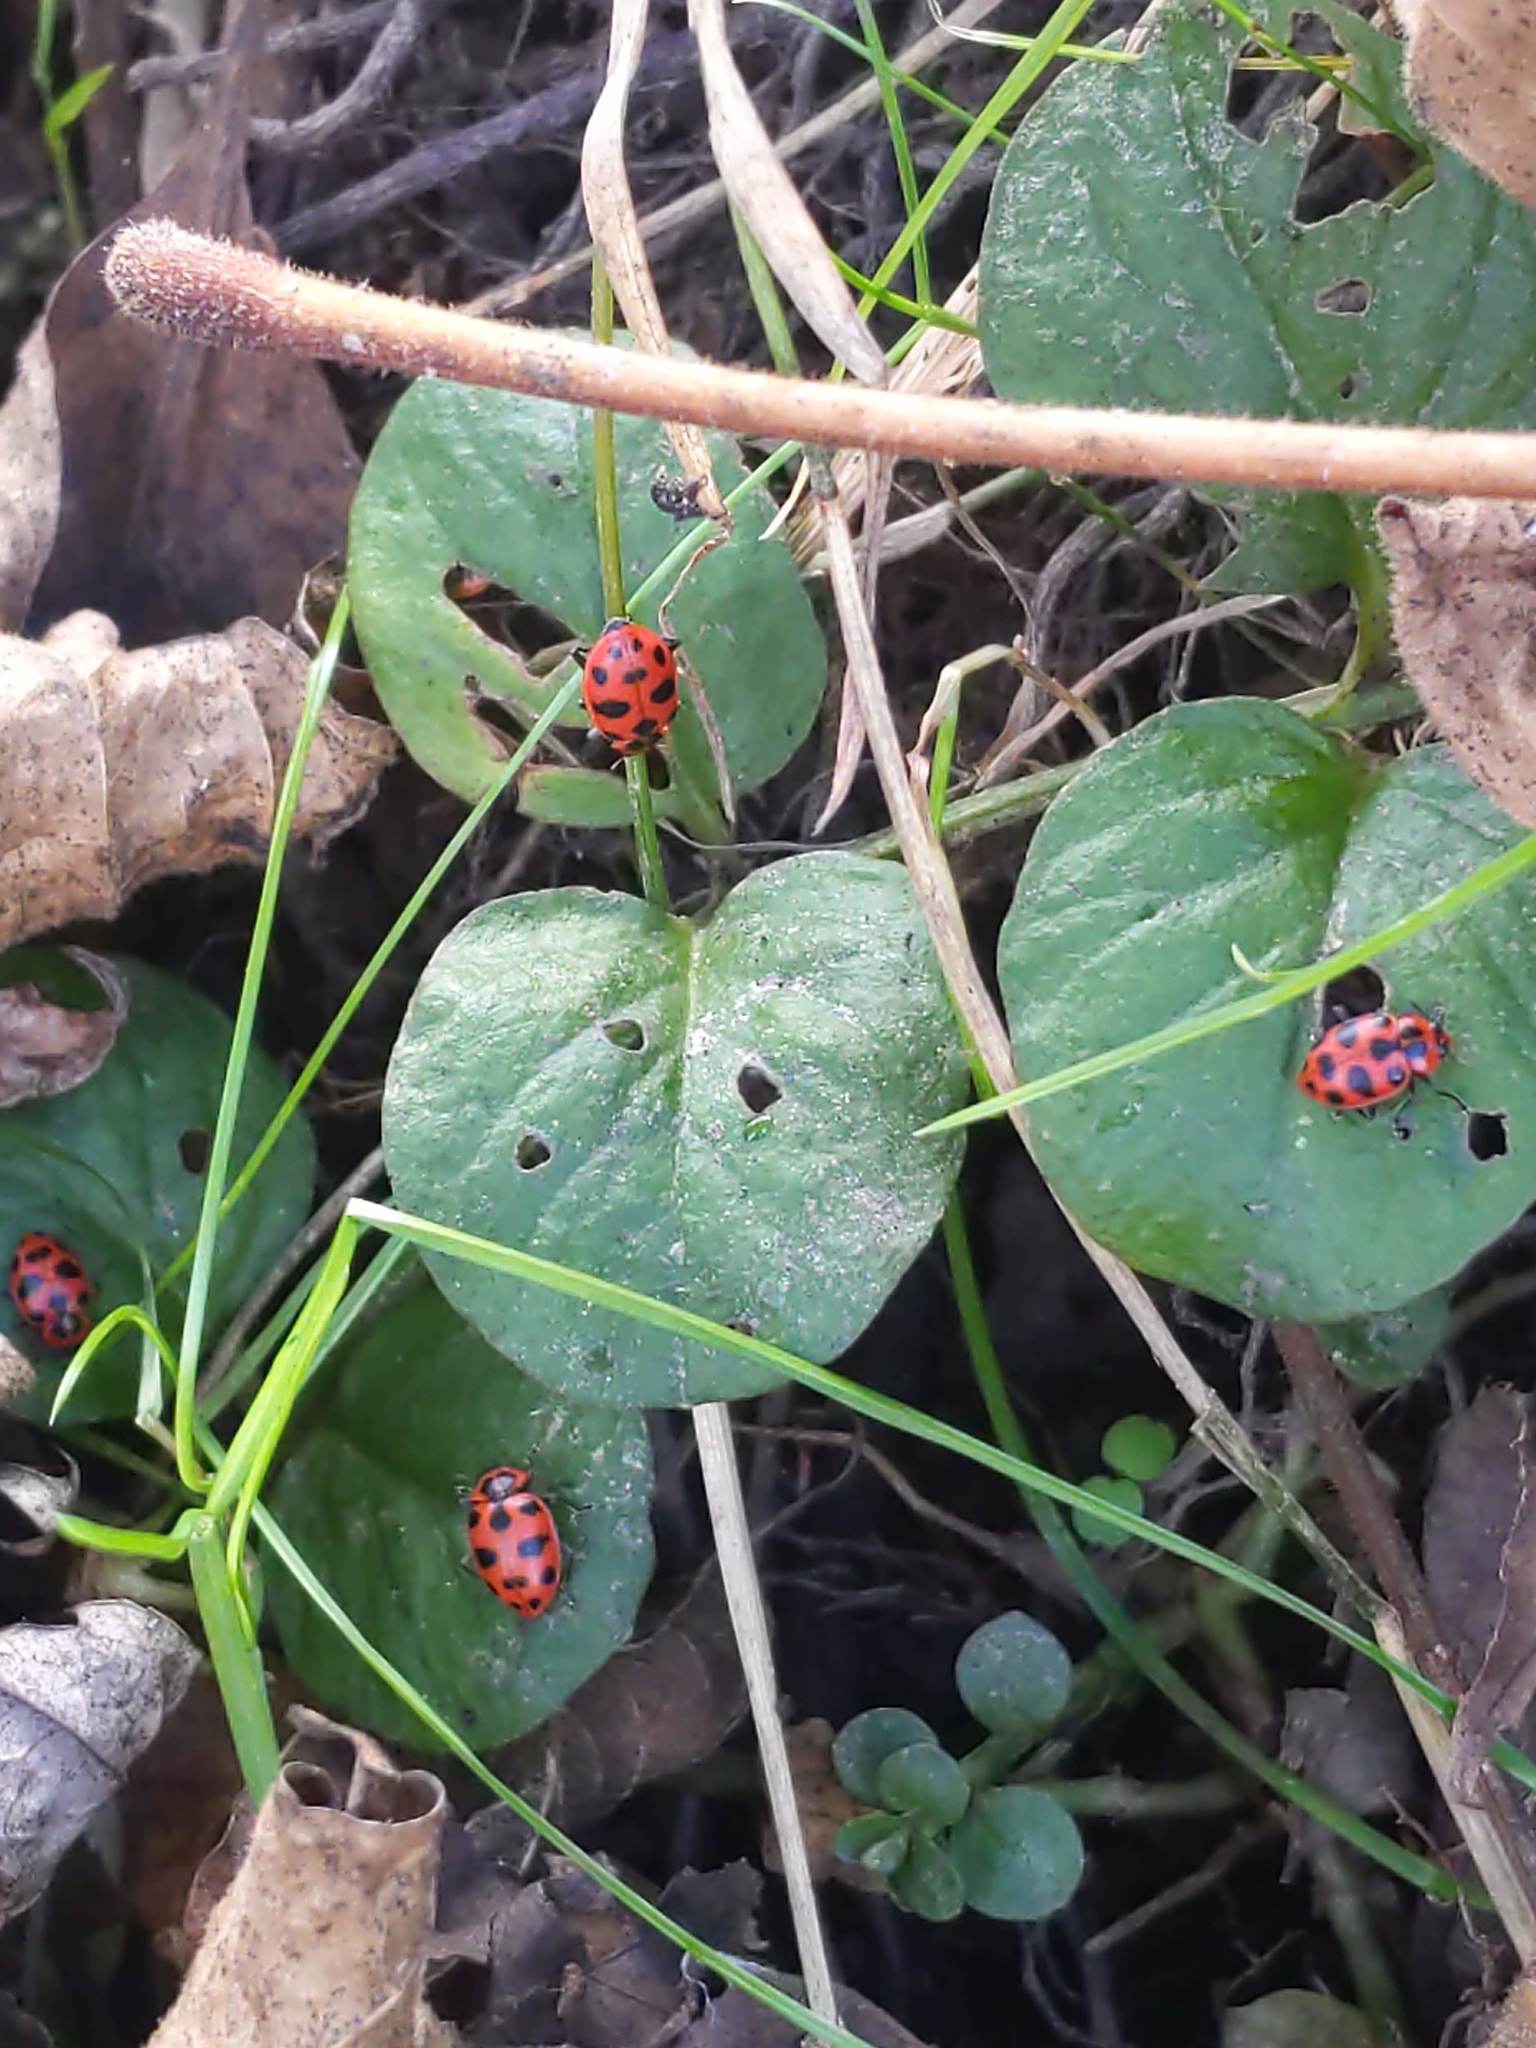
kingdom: Animalia
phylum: Arthropoda
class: Insecta
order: Coleoptera
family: Coccinellidae
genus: Coleomegilla
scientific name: Coleomegilla maculata
